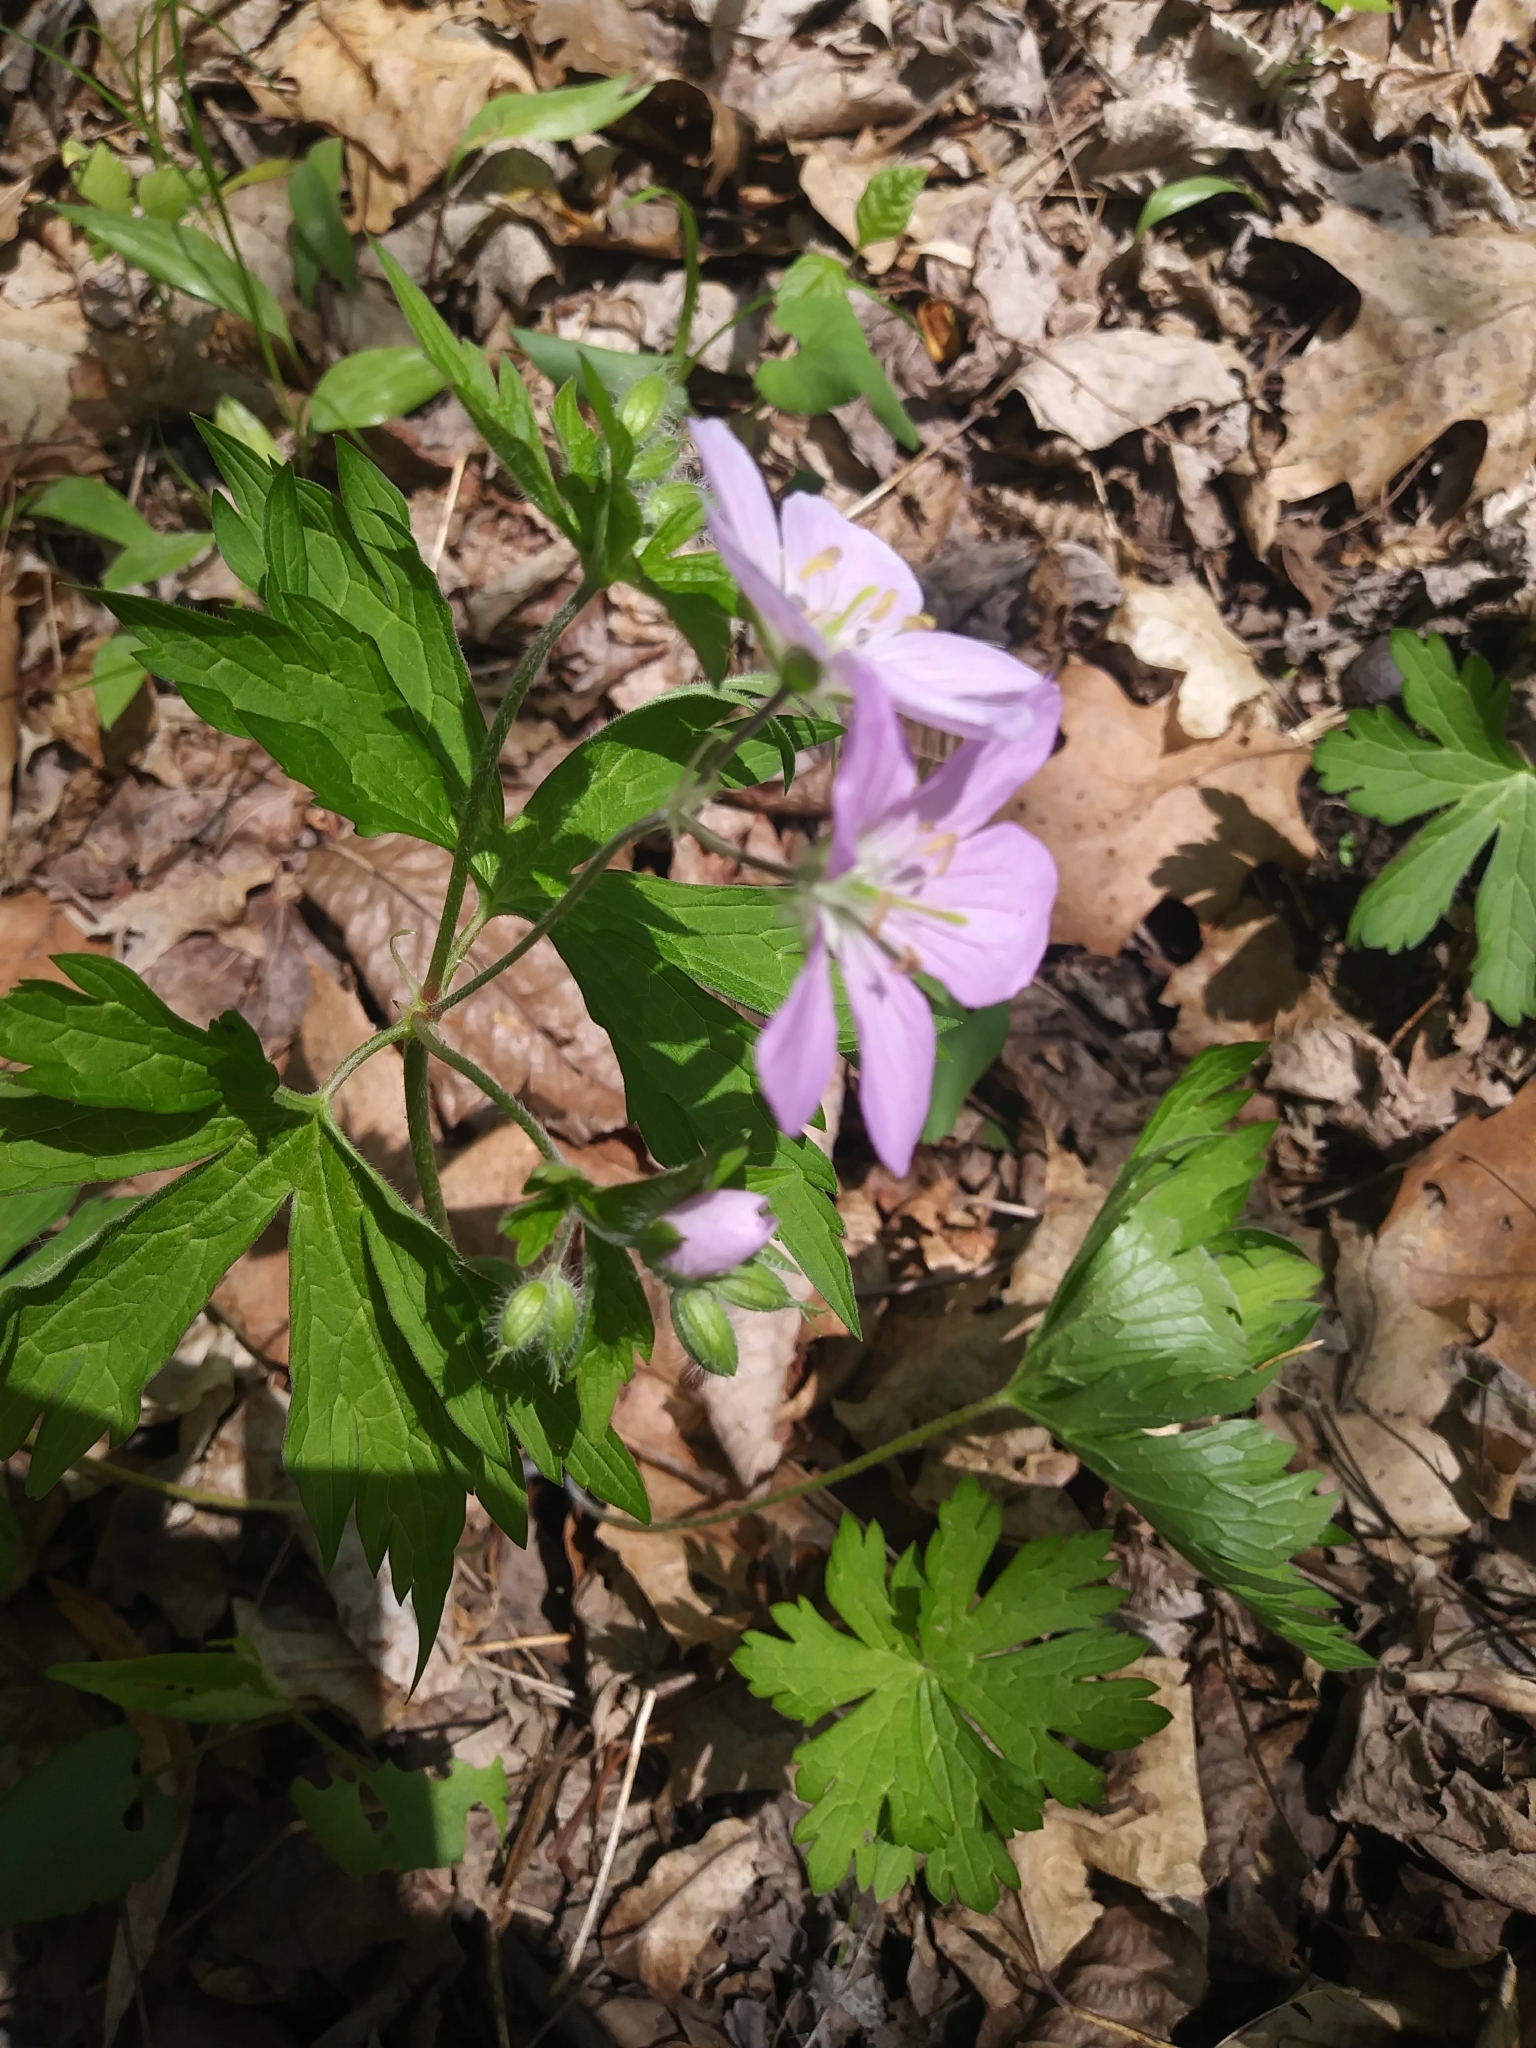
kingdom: Plantae
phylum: Tracheophyta
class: Magnoliopsida
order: Geraniales
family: Geraniaceae
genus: Geranium
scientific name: Geranium maculatum
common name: Spotted geranium
